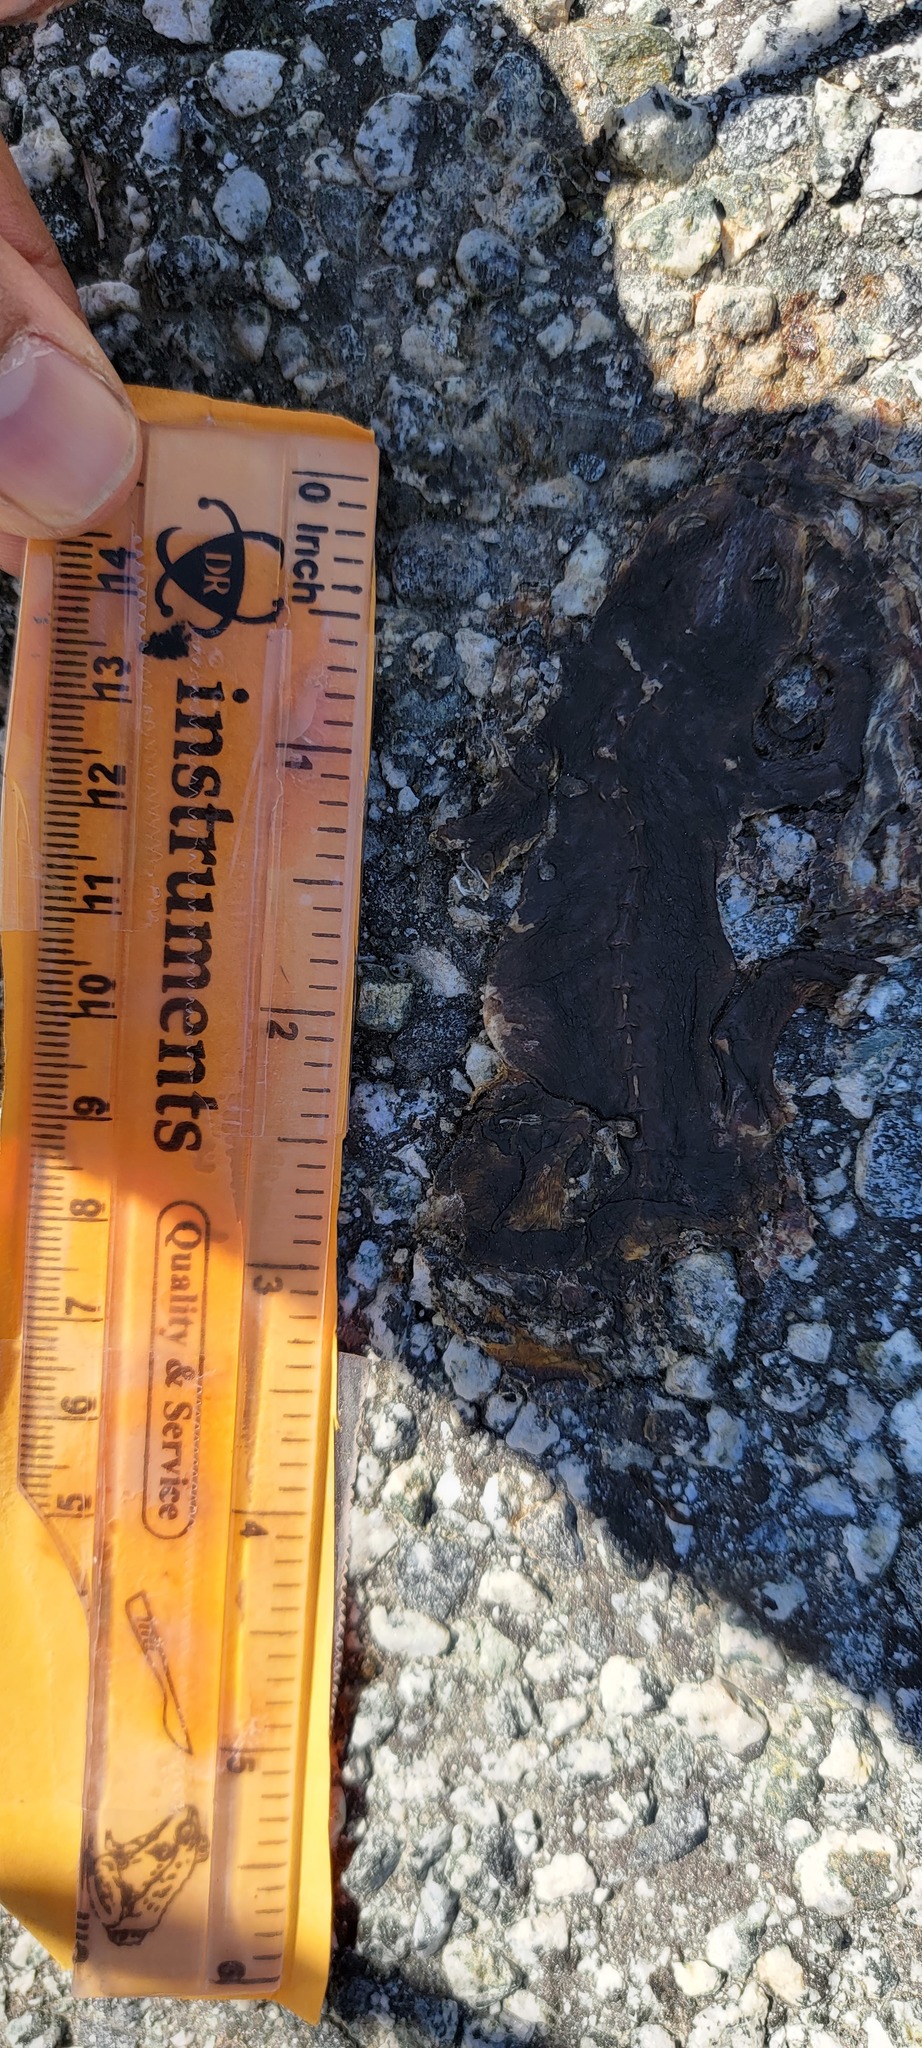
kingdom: Animalia
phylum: Chordata
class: Amphibia
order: Caudata
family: Salamandridae
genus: Taricha
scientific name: Taricha
